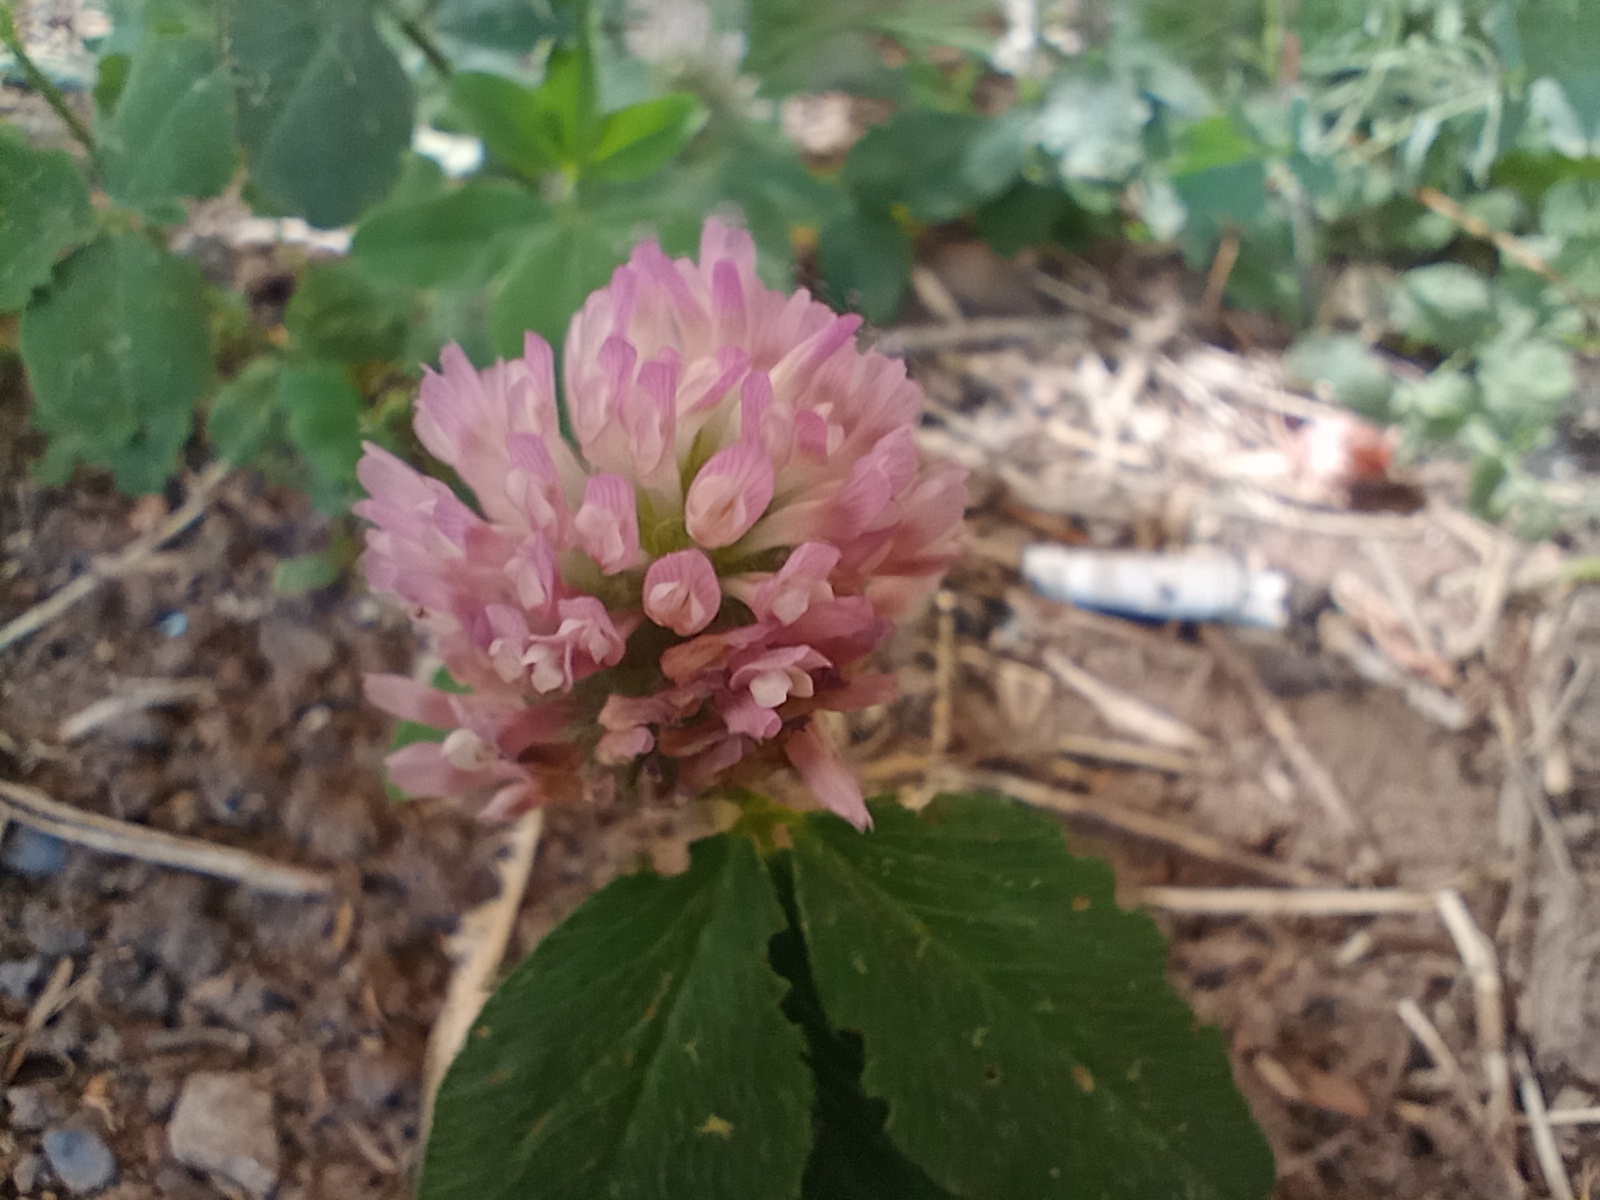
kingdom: Plantae
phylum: Tracheophyta
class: Magnoliopsida
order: Fabales
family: Fabaceae
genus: Trifolium
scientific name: Trifolium pratense
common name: Red clover
